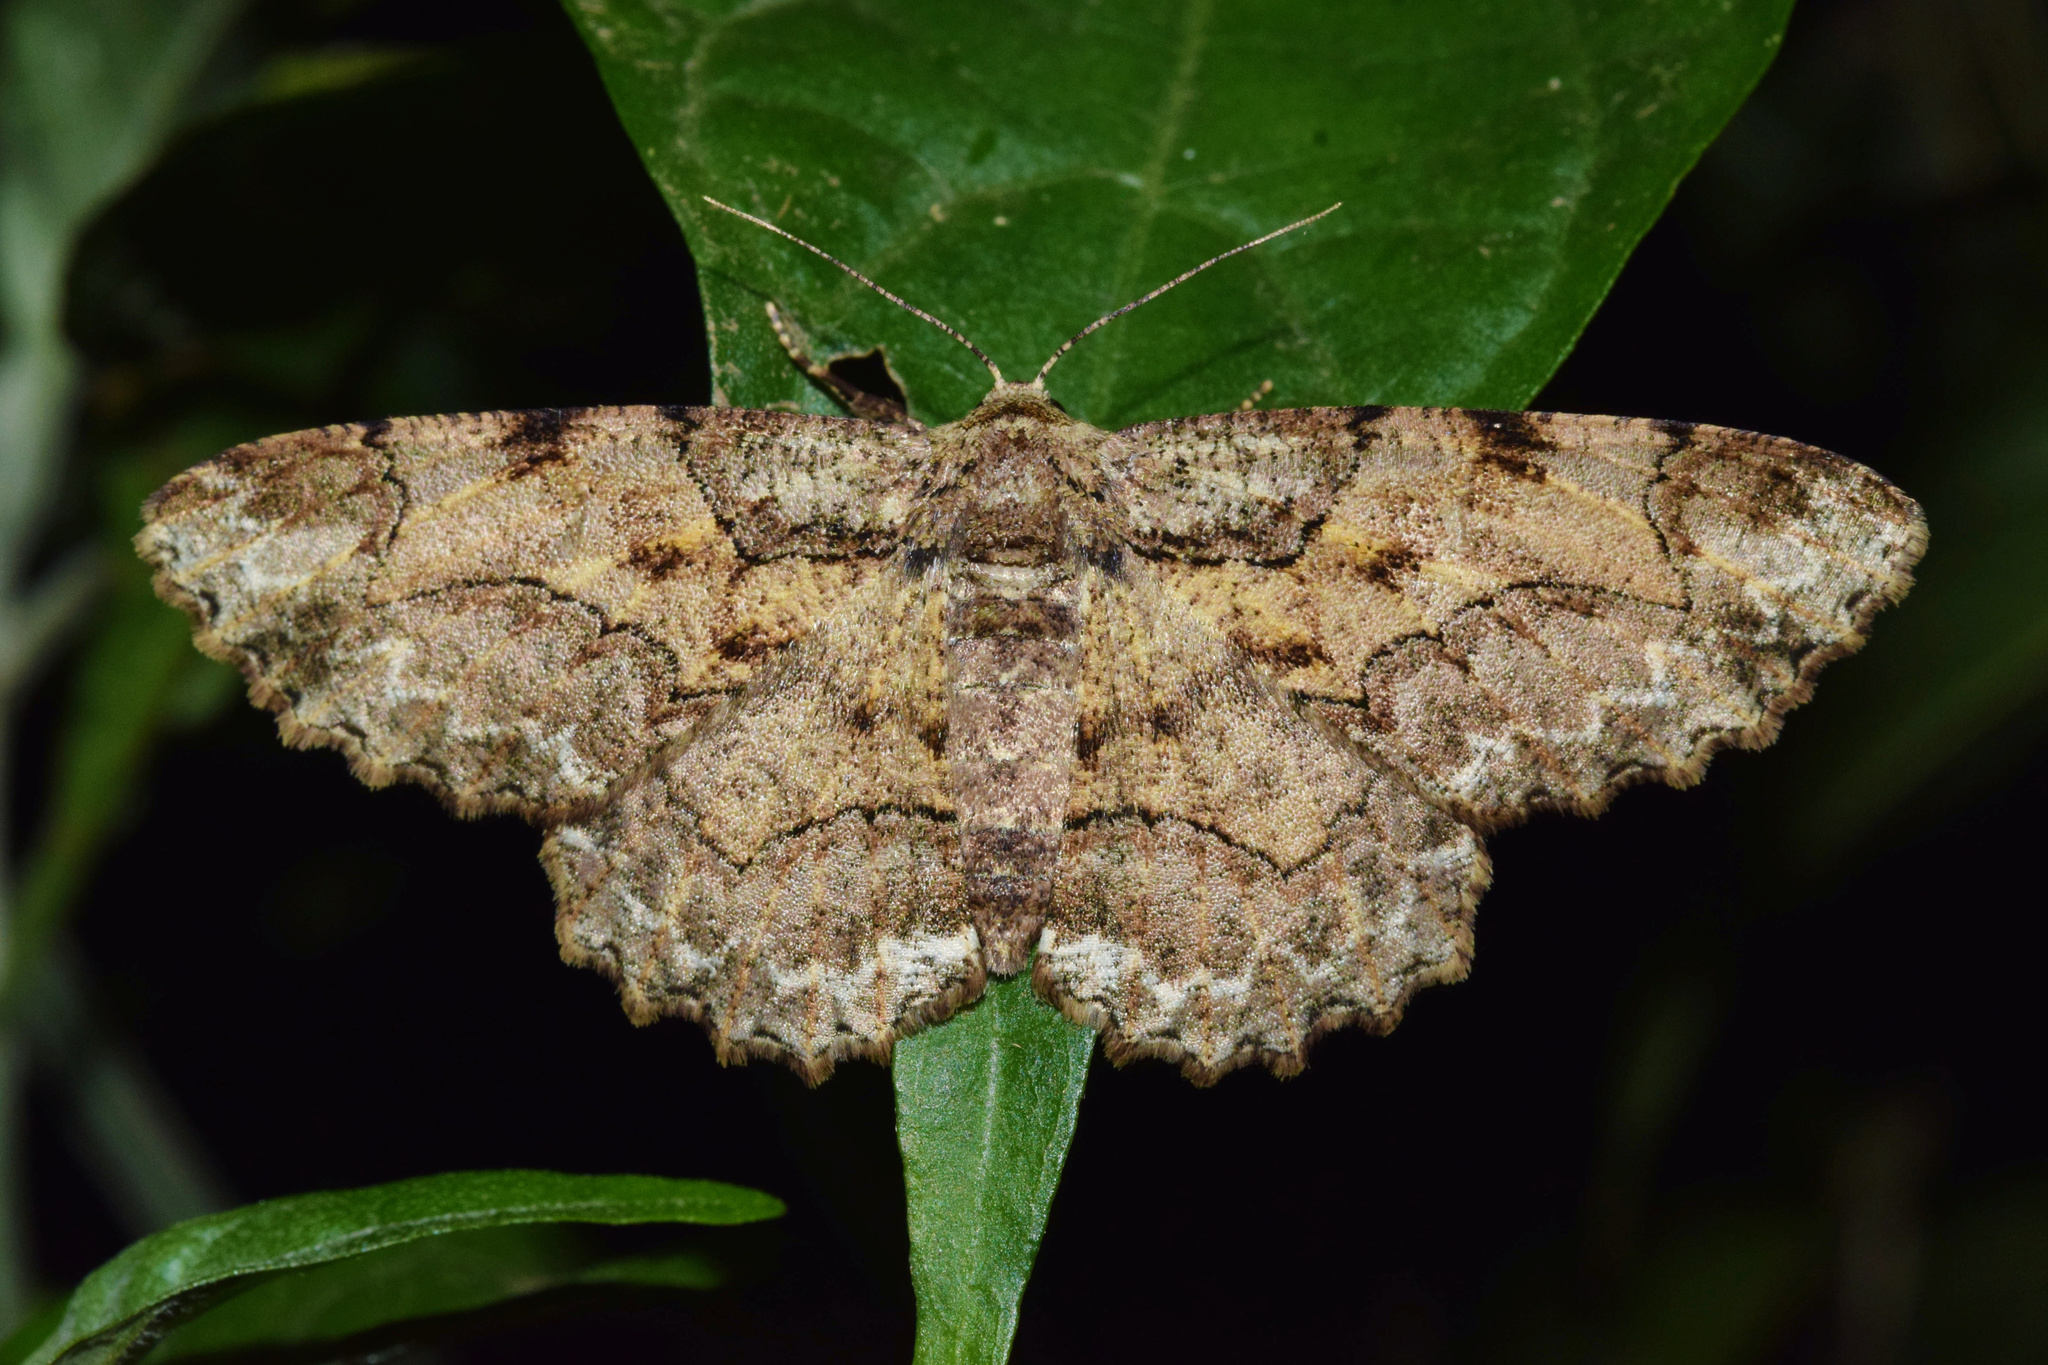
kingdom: Animalia
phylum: Arthropoda
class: Insecta
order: Lepidoptera
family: Geometridae
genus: Colocleora
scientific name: Colocleora divisaria
